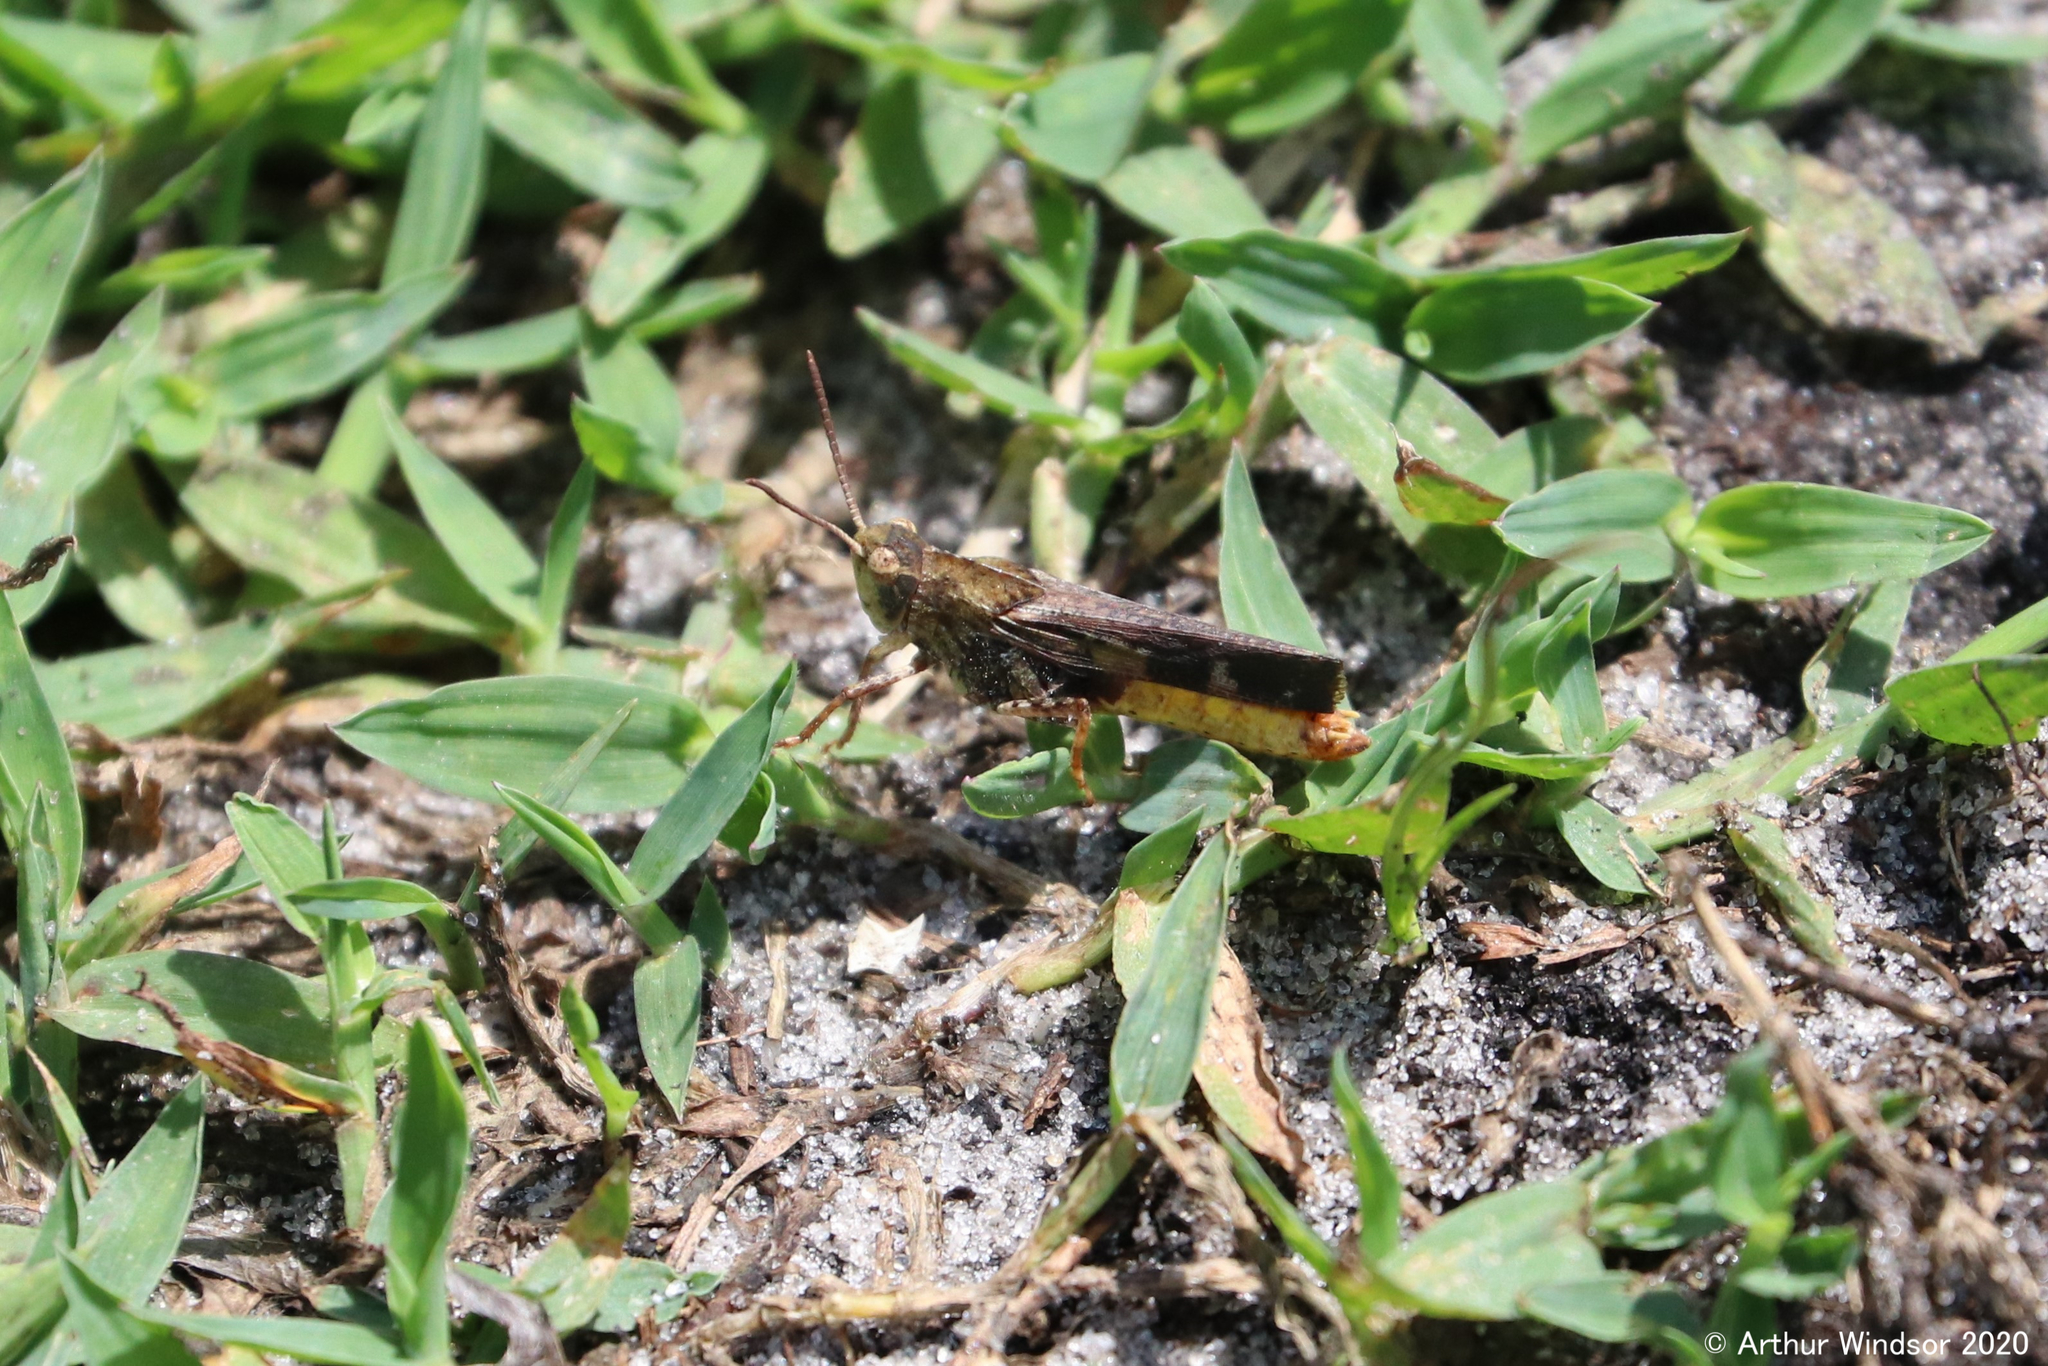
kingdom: Animalia
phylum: Arthropoda
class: Insecta
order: Orthoptera
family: Acrididae
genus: Chortophaga
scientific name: Chortophaga australior
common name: Southern green-striped grasshopper
